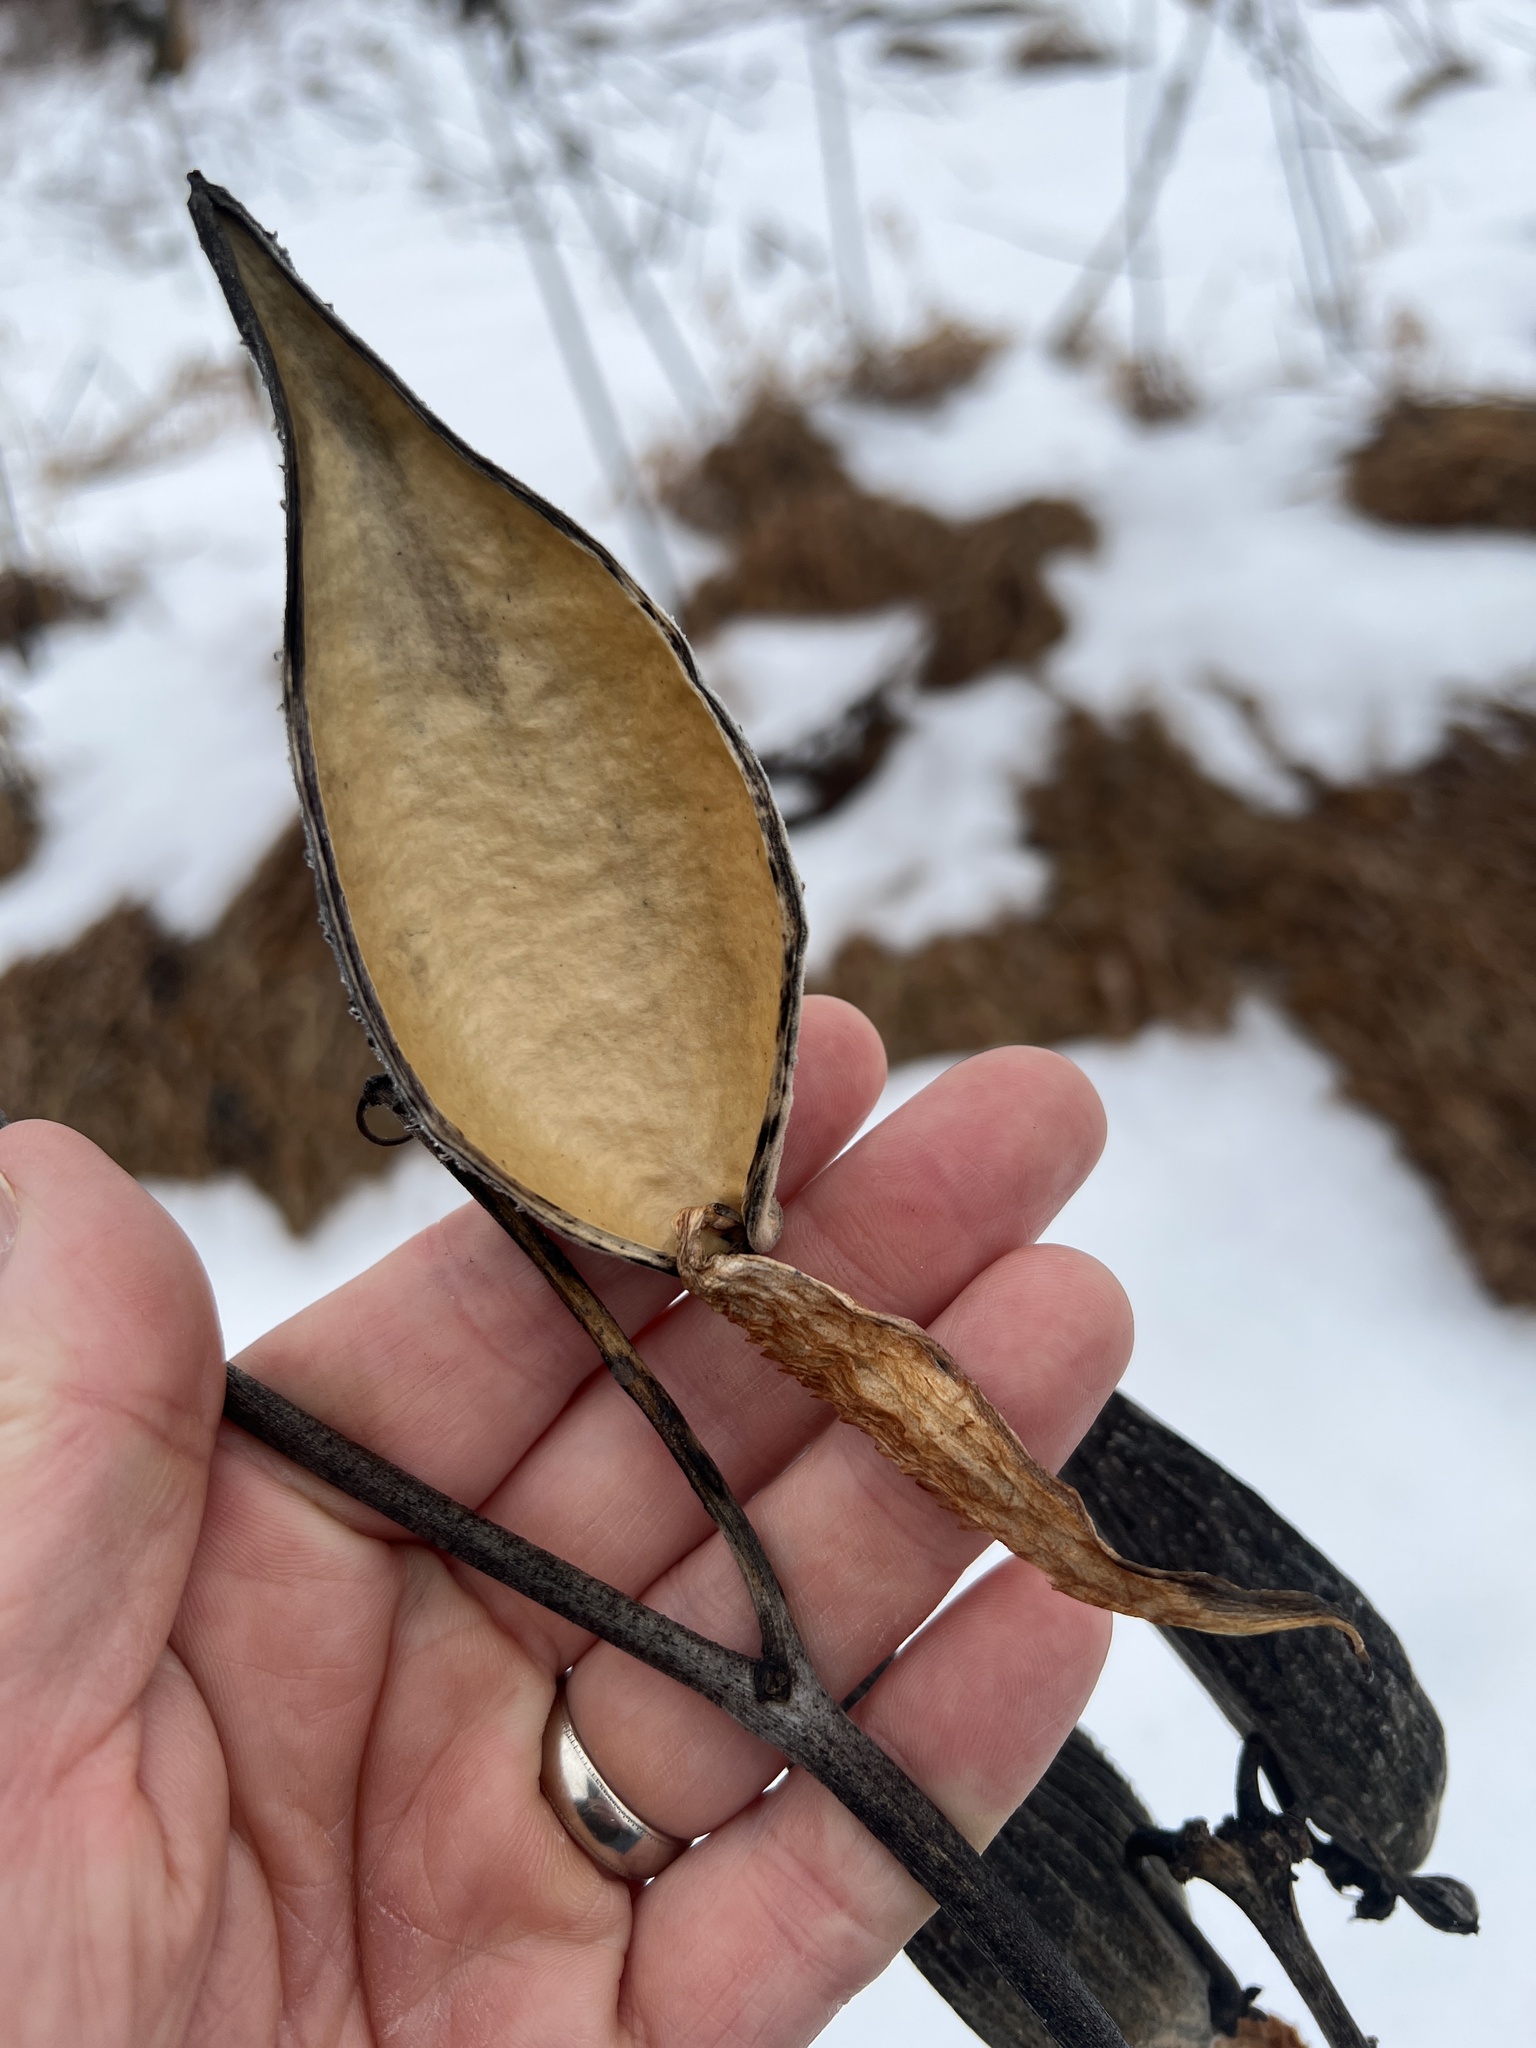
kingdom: Plantae
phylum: Tracheophyta
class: Magnoliopsida
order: Gentianales
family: Apocynaceae
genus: Asclepias
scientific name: Asclepias syriaca
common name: Common milkweed
